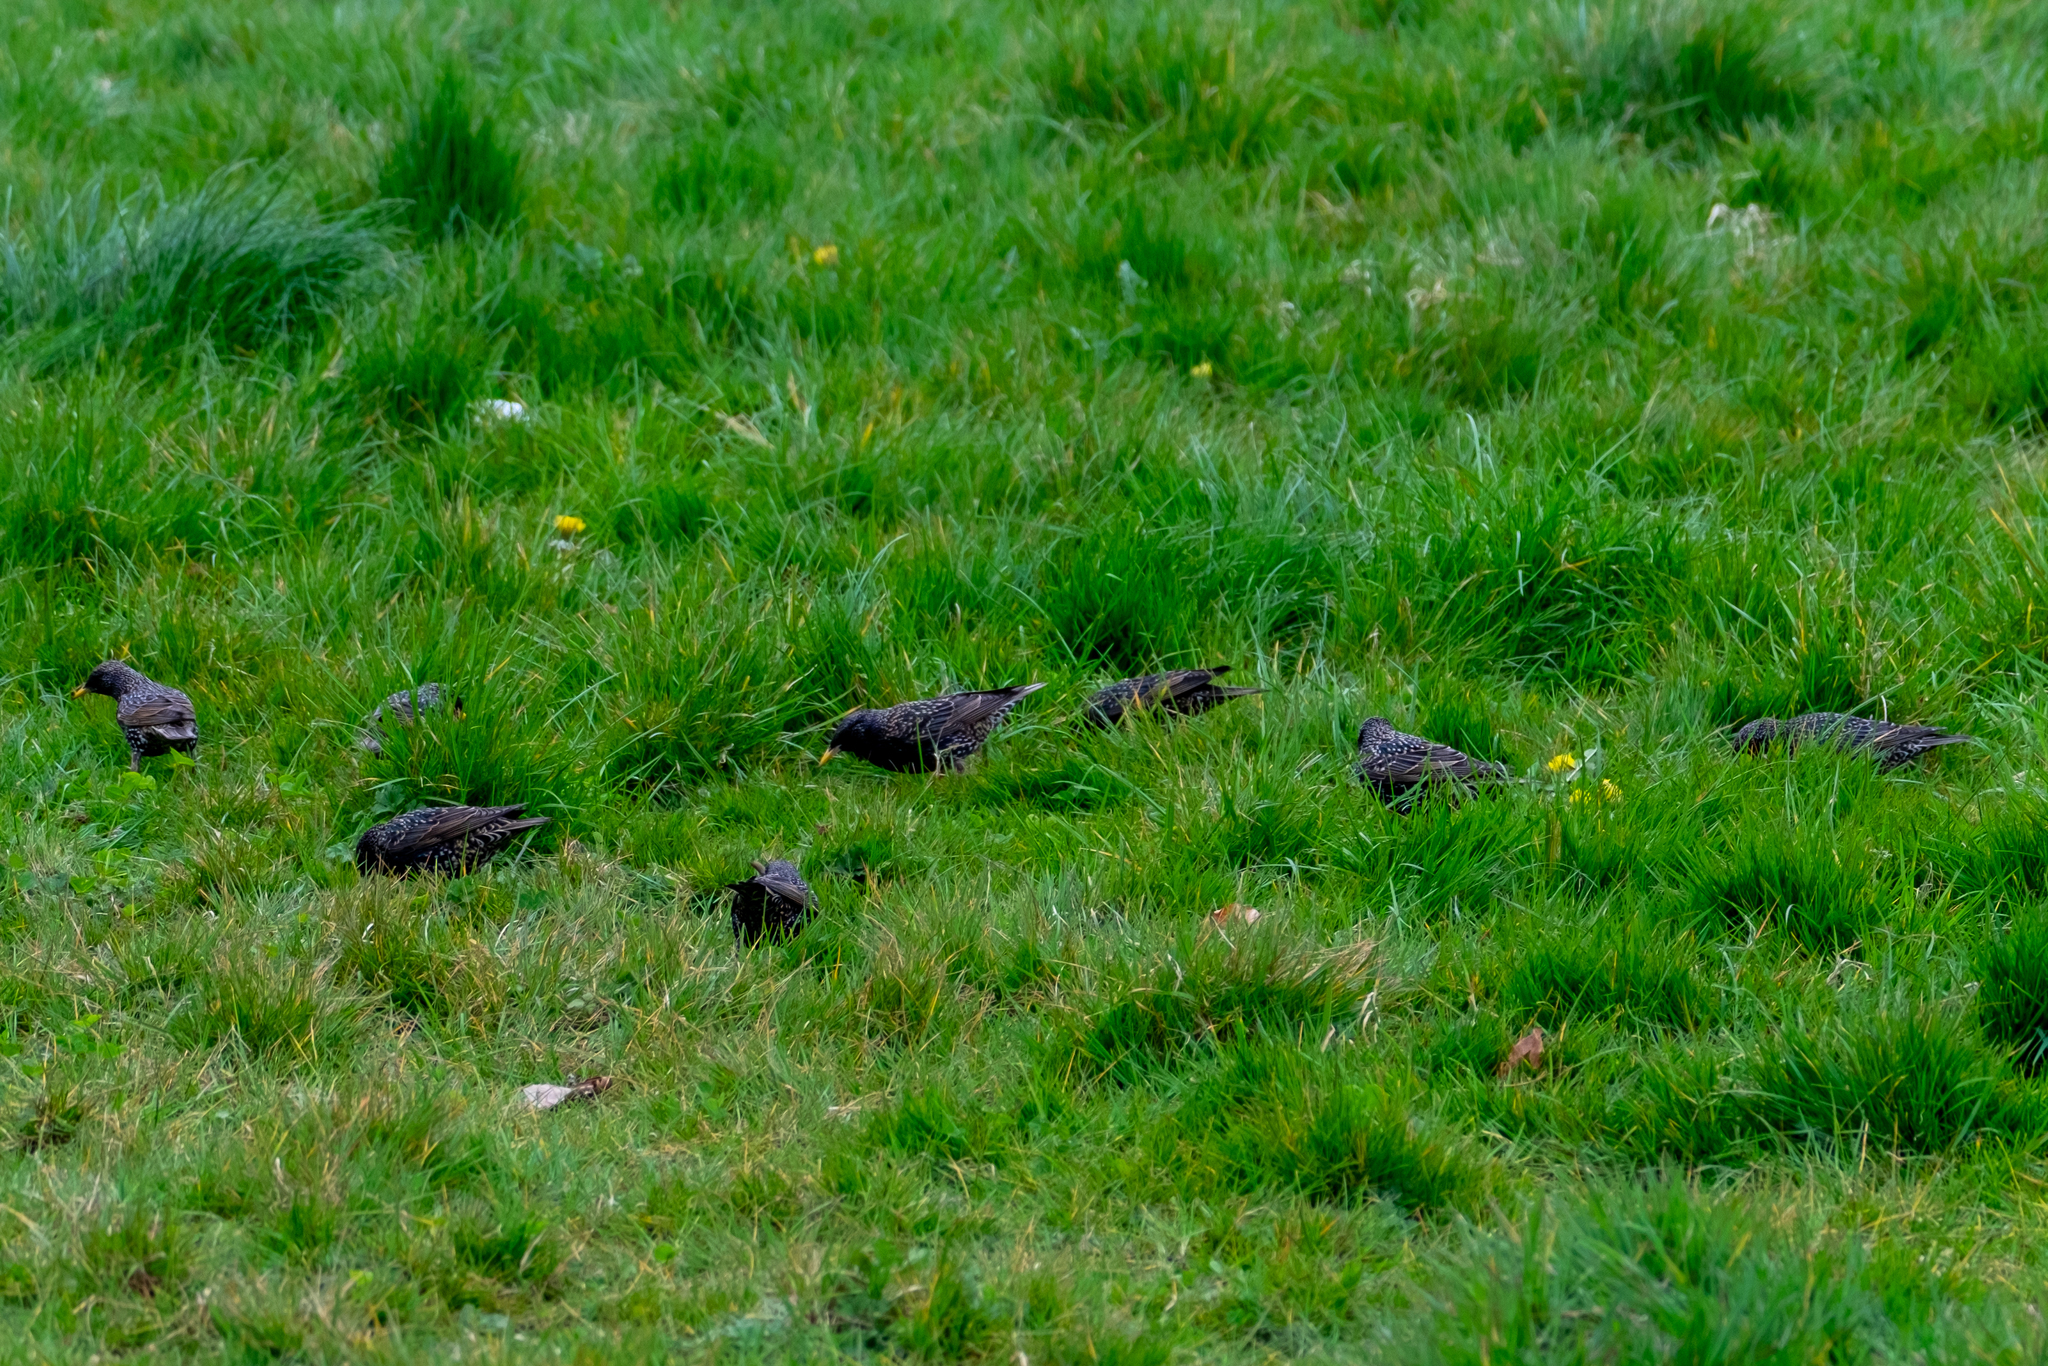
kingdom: Animalia
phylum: Chordata
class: Aves
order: Passeriformes
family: Sturnidae
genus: Sturnus
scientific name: Sturnus vulgaris
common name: Common starling
